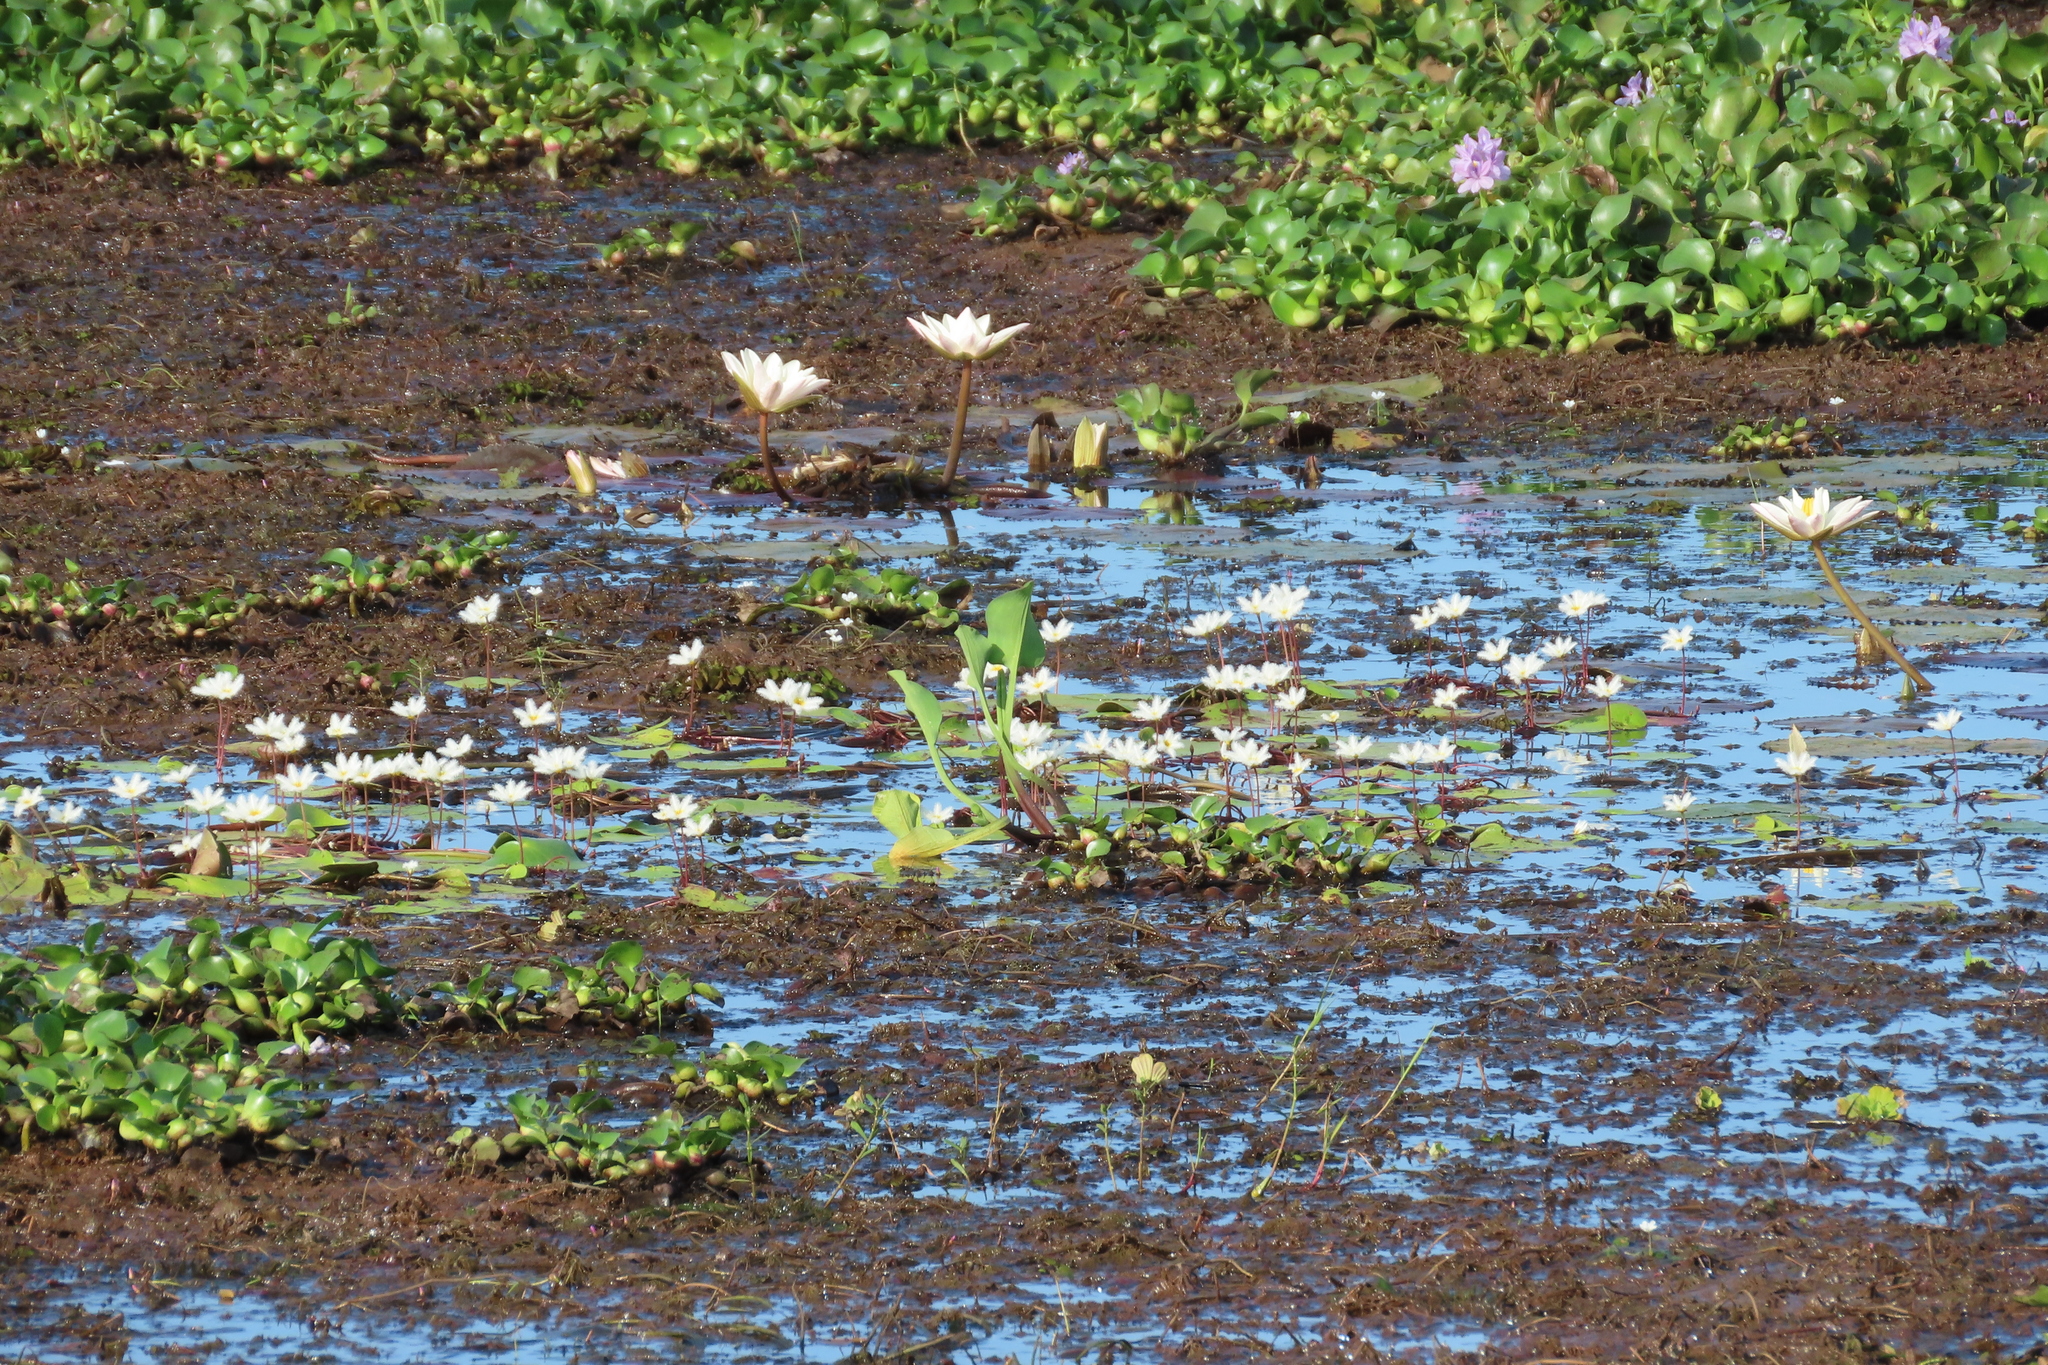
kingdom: Plantae
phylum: Tracheophyta
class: Magnoliopsida
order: Asterales
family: Menyanthaceae
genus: Nymphoides
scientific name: Nymphoides indica
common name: Water-snowflake
